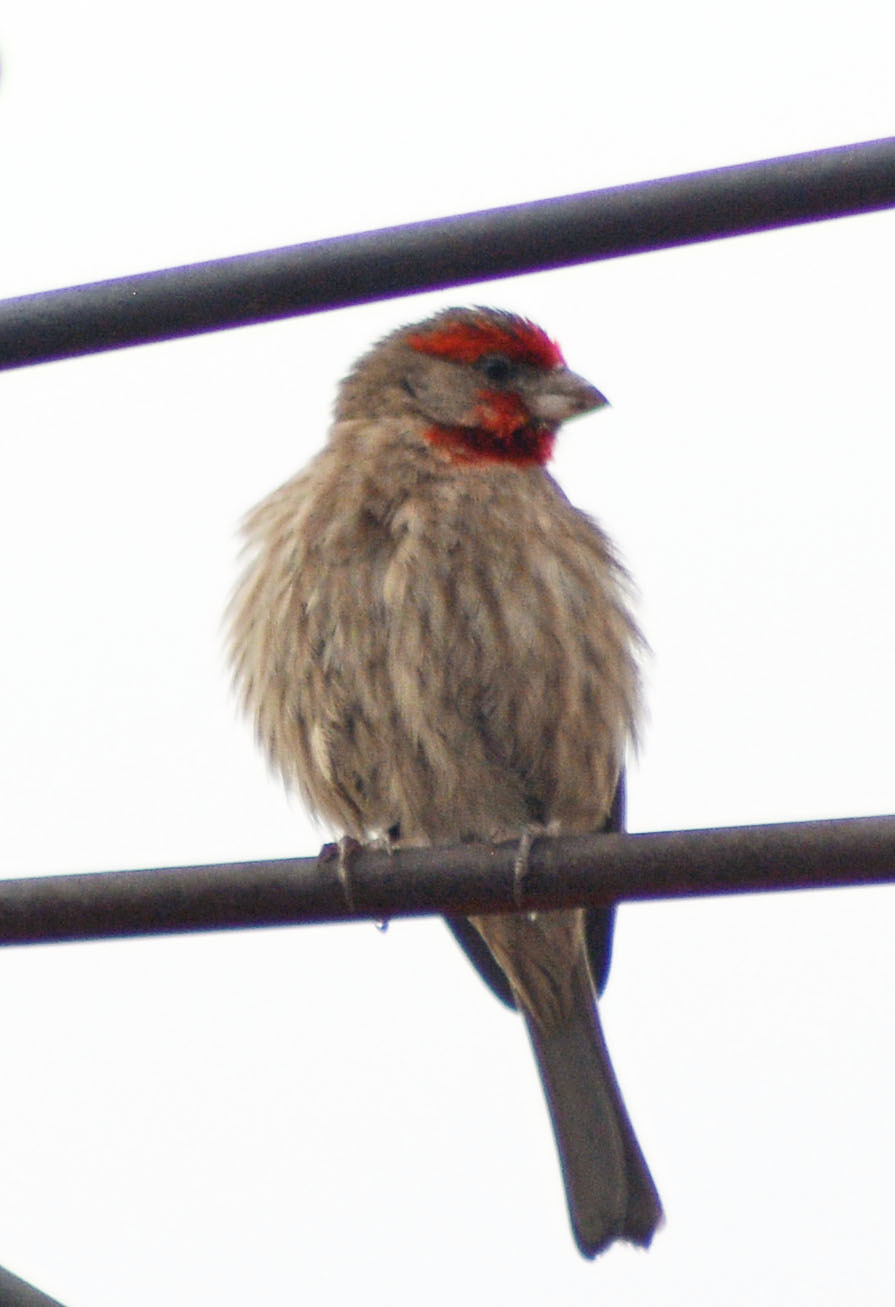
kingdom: Animalia
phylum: Chordata
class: Aves
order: Passeriformes
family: Fringillidae
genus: Haemorhous
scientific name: Haemorhous mexicanus
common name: House finch
